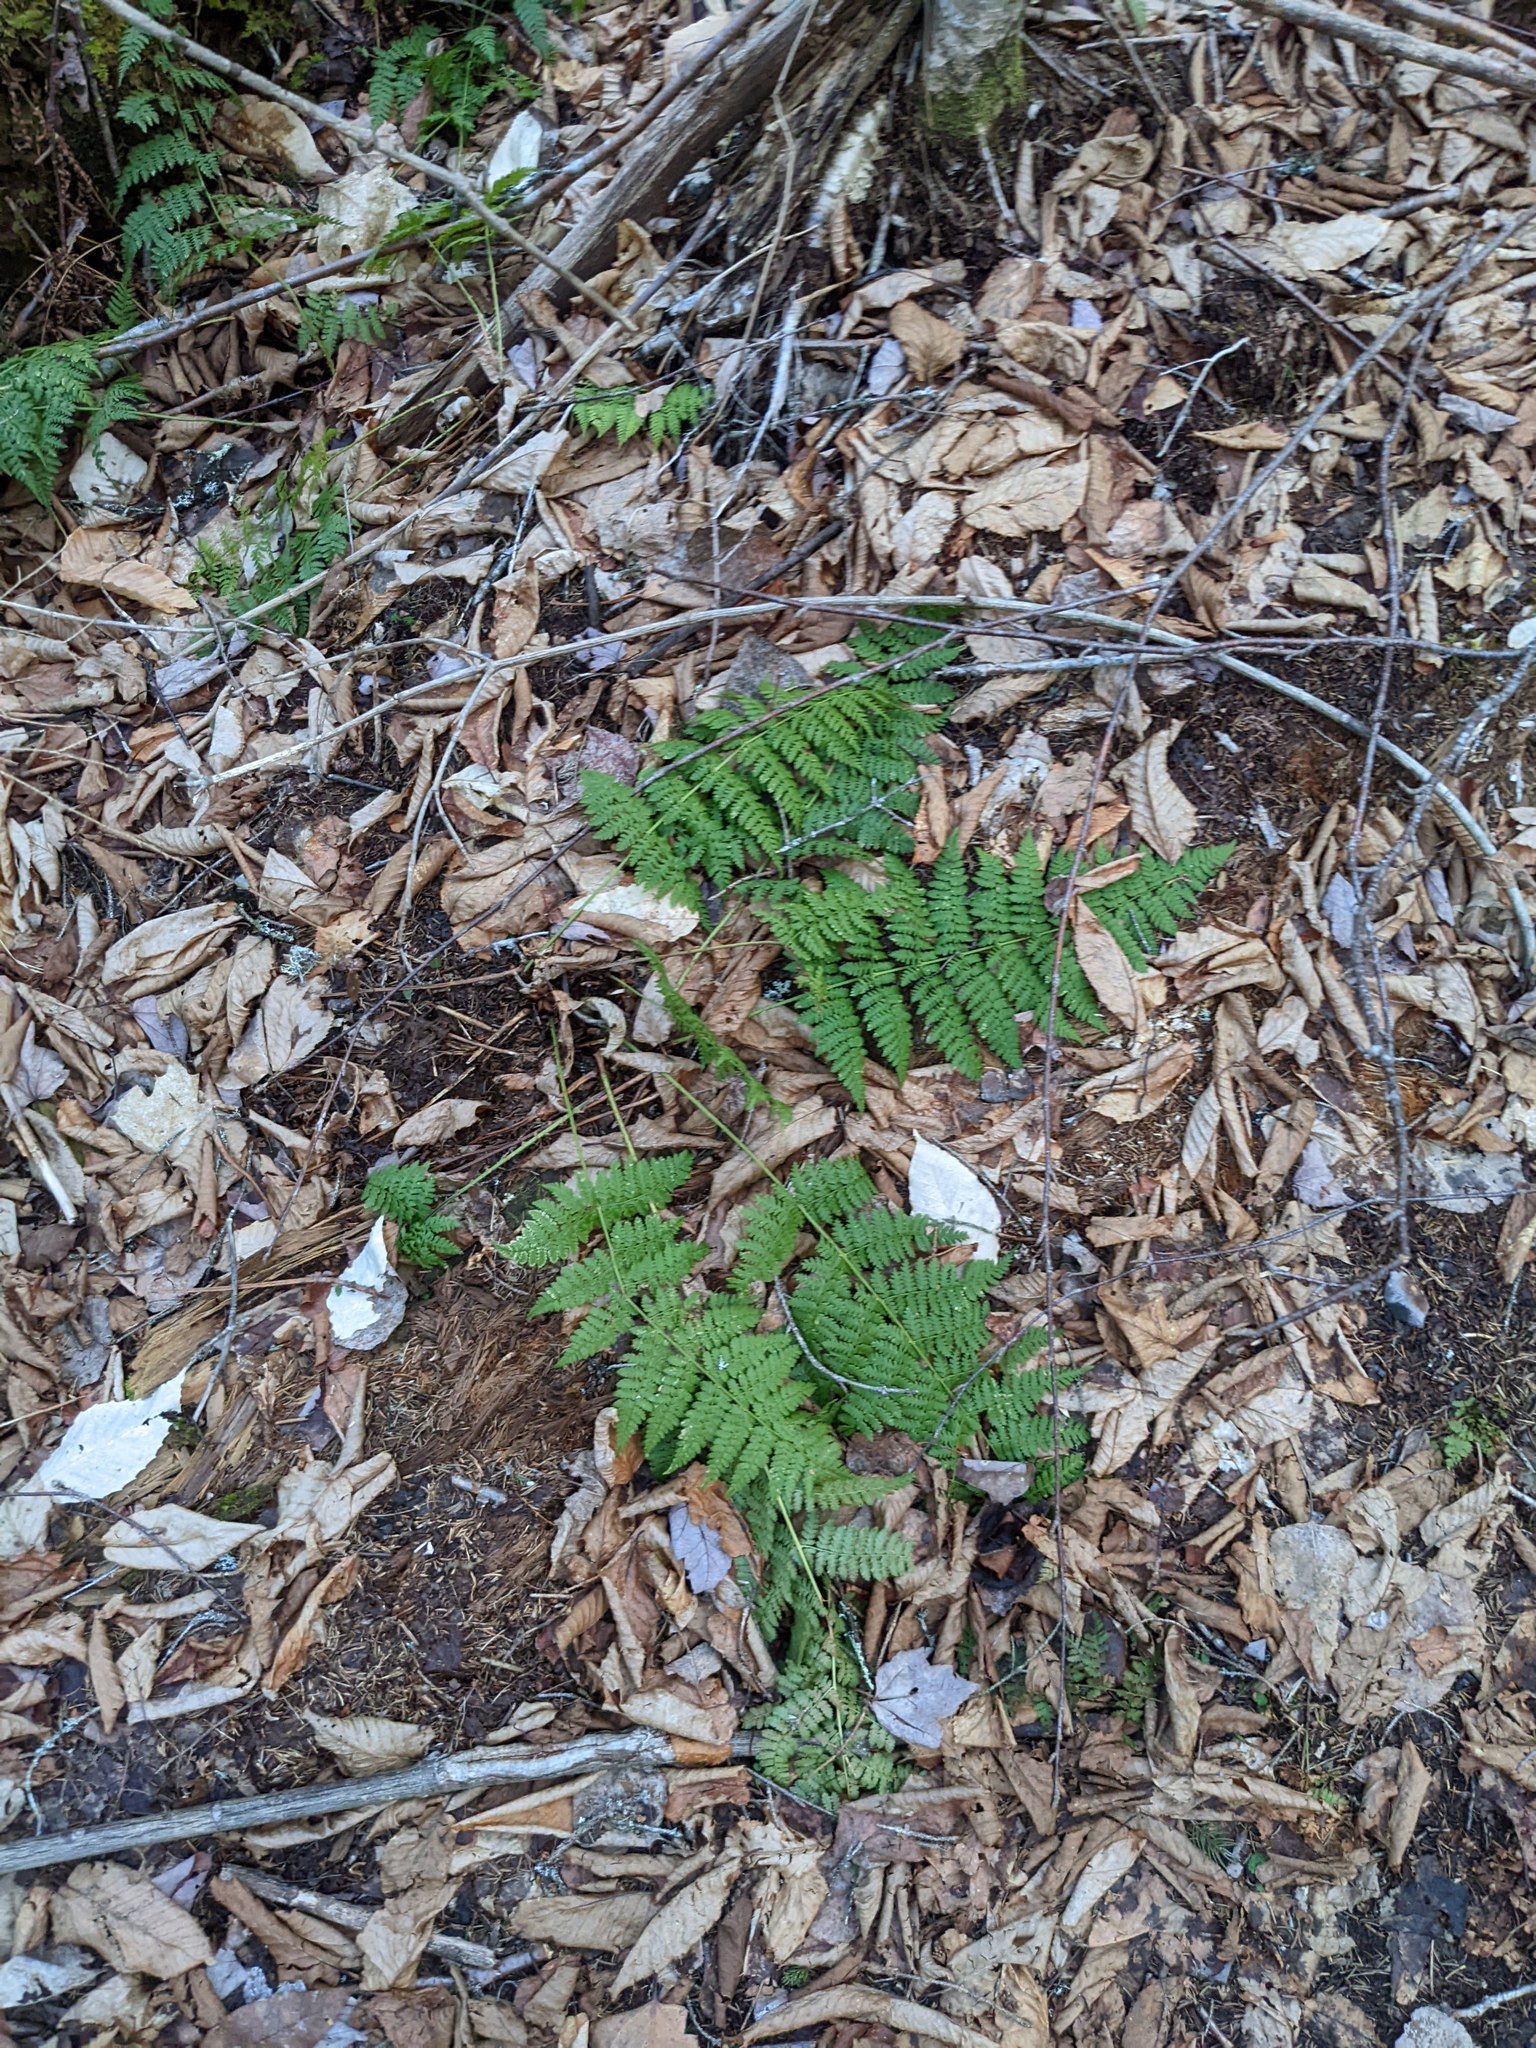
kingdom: Plantae
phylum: Tracheophyta
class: Polypodiopsida
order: Polypodiales
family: Dryopteridaceae
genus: Dryopteris
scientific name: Dryopteris intermedia
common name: Evergreen wood fern
